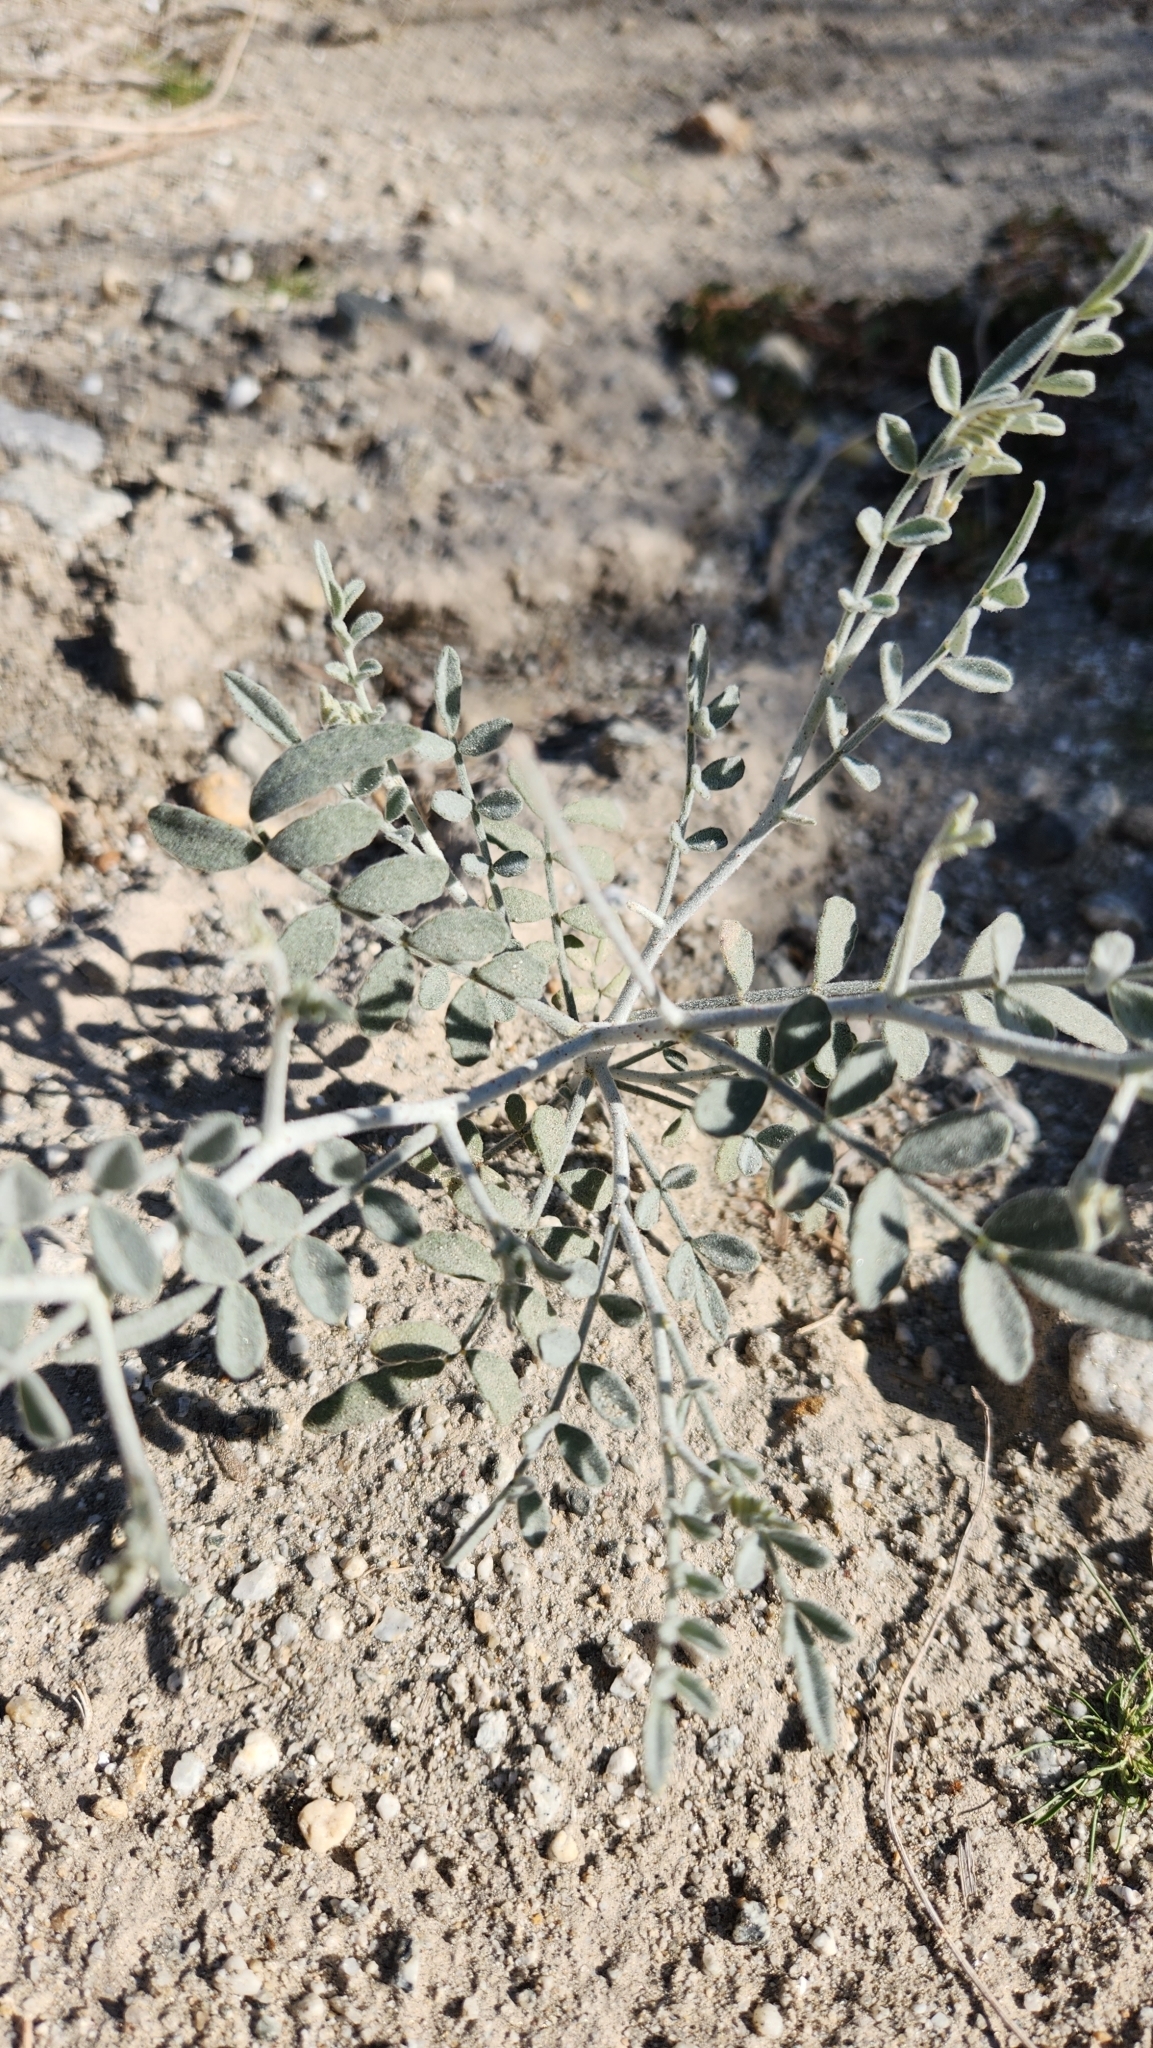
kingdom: Plantae
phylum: Tracheophyta
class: Magnoliopsida
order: Fabales
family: Fabaceae
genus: Psorothamnus
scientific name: Psorothamnus emoryi
